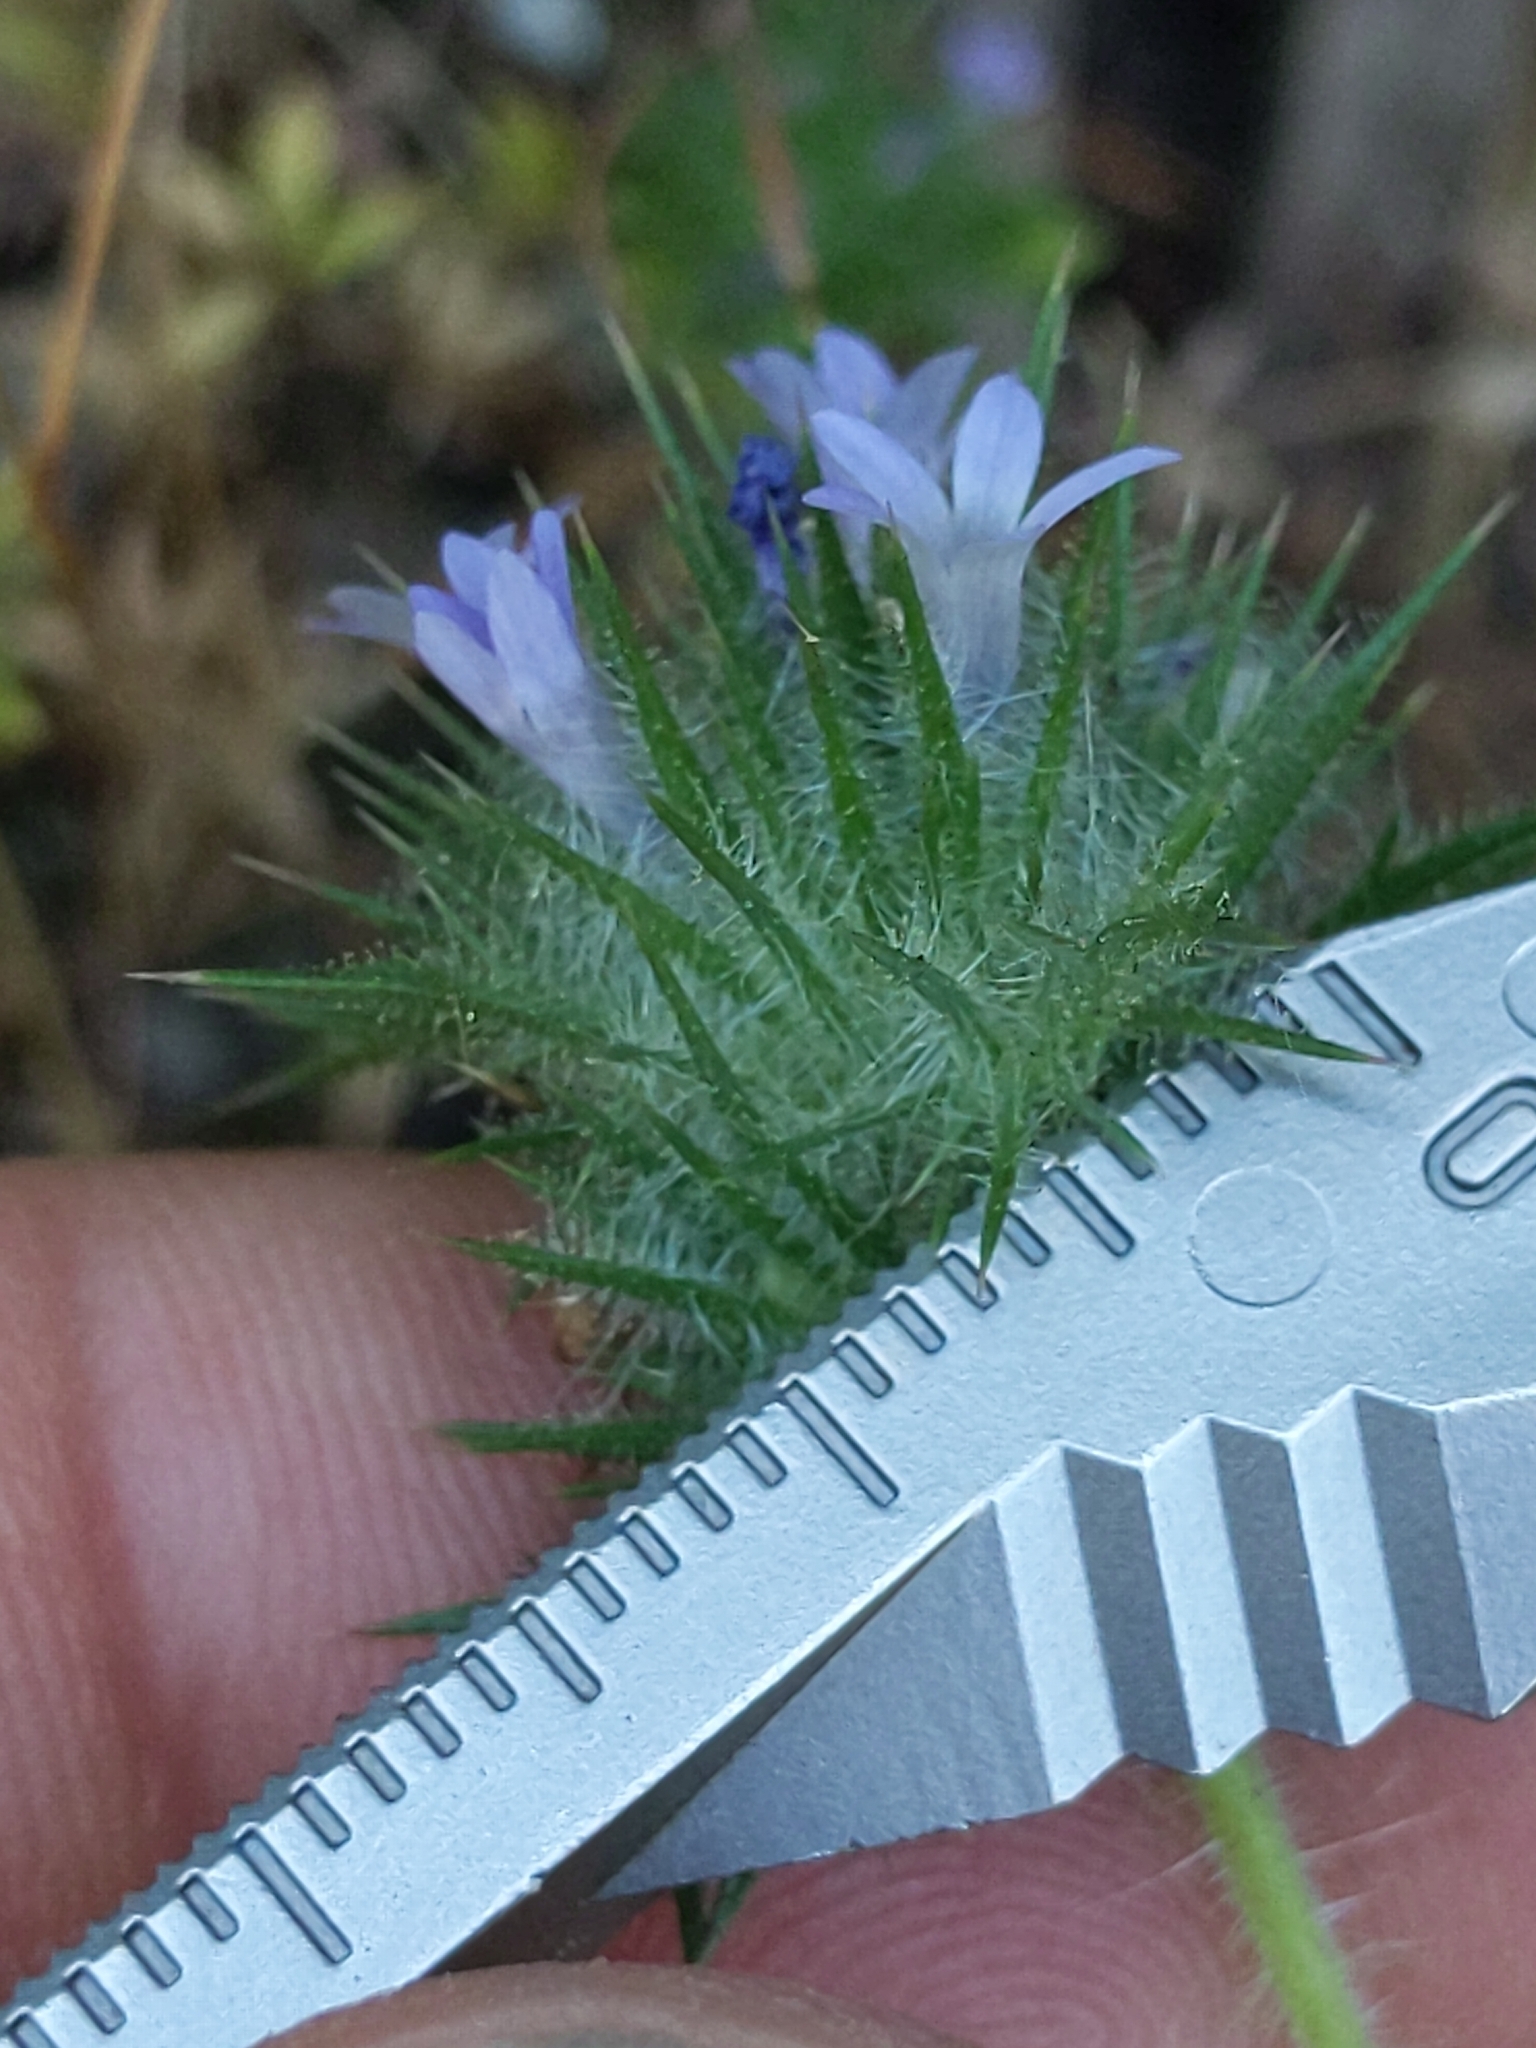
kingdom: Plantae
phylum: Tracheophyta
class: Magnoliopsida
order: Ericales
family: Polemoniaceae
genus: Navarretia
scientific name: Navarretia squarrosa
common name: Skunkweed
